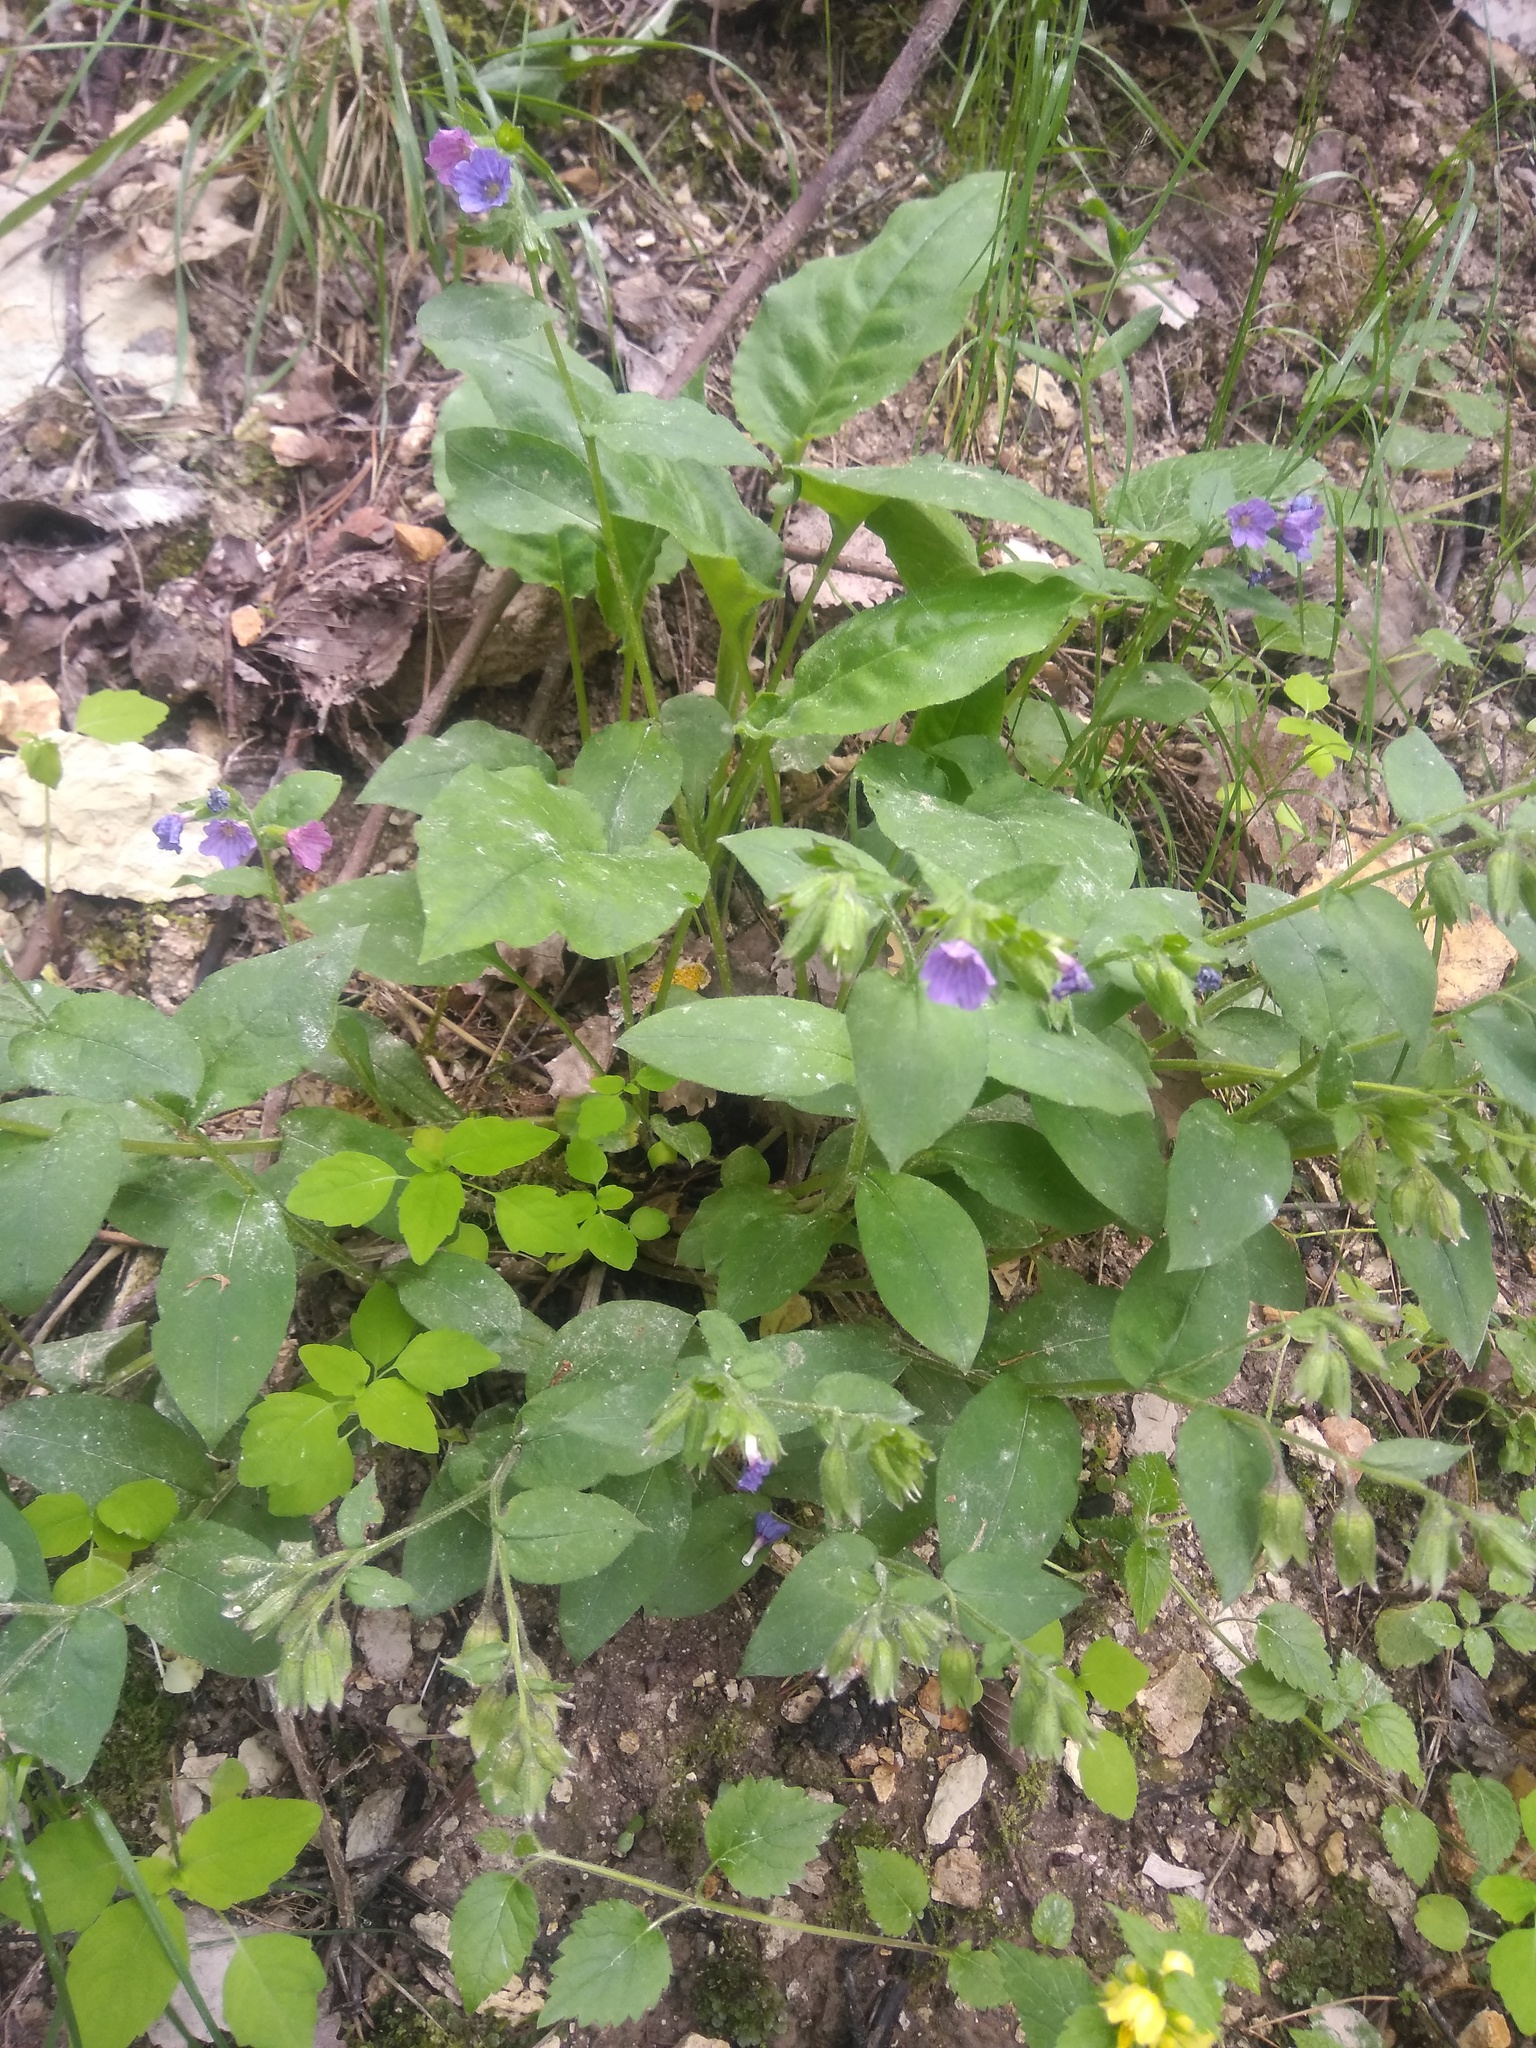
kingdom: Plantae
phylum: Tracheophyta
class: Magnoliopsida
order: Boraginales
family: Boraginaceae
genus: Pulmonaria
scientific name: Pulmonaria obscura
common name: Suffolk lungwort
